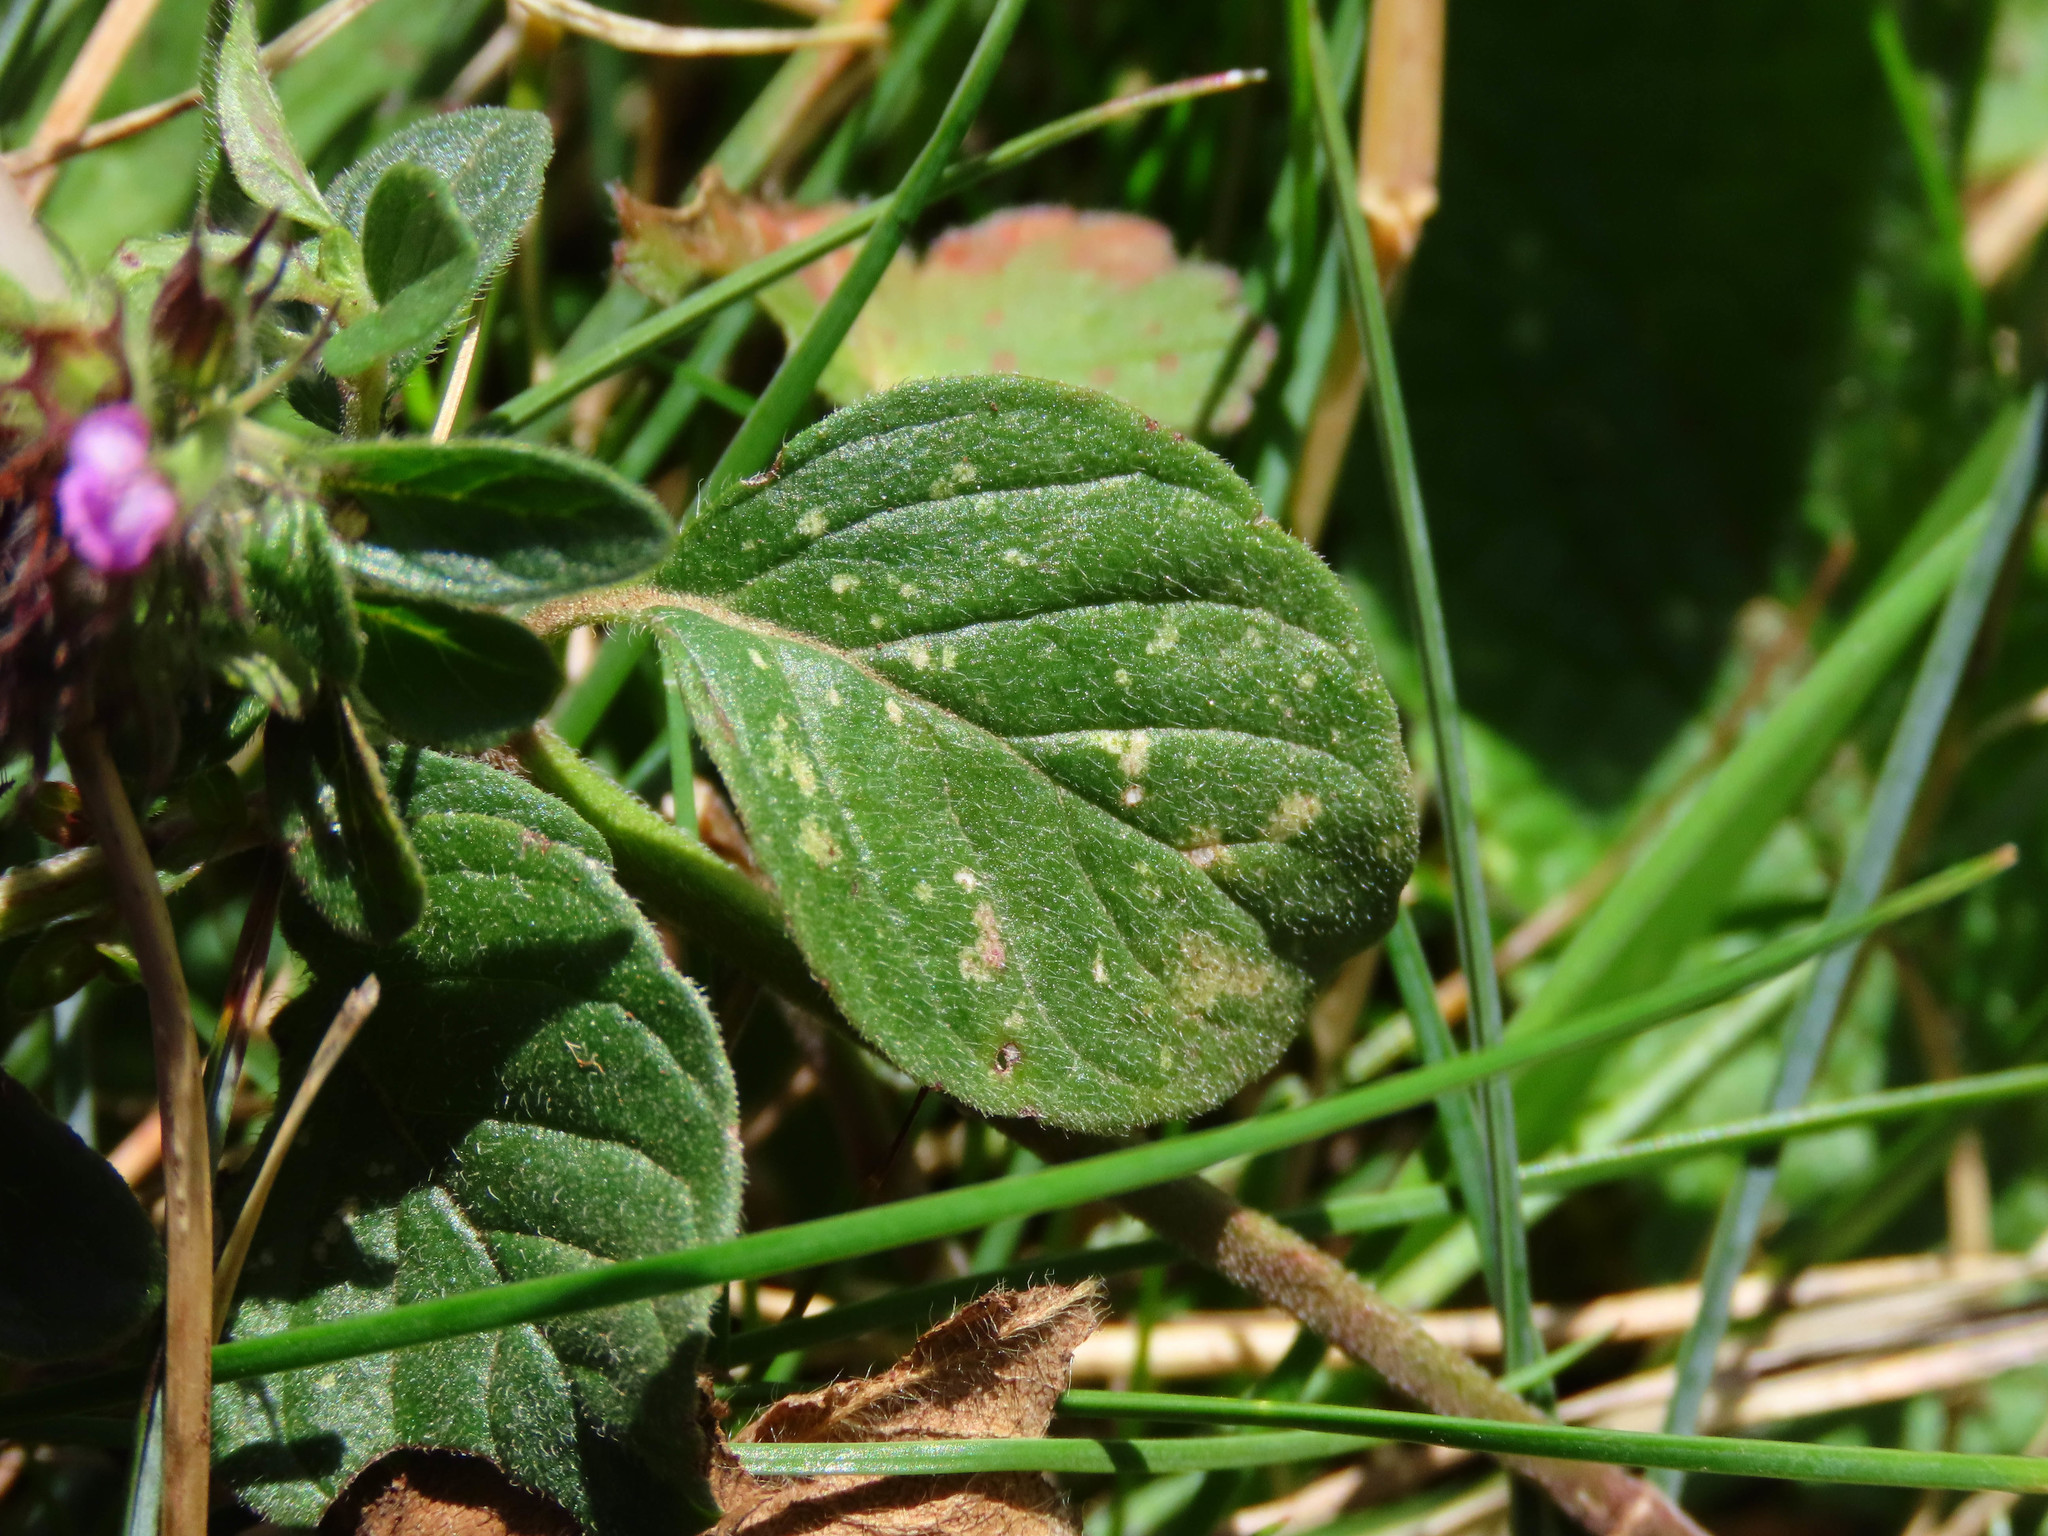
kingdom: Plantae
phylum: Tracheophyta
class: Magnoliopsida
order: Lamiales
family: Lamiaceae
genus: Clinopodium
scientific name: Clinopodium vulgare
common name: Wild basil
